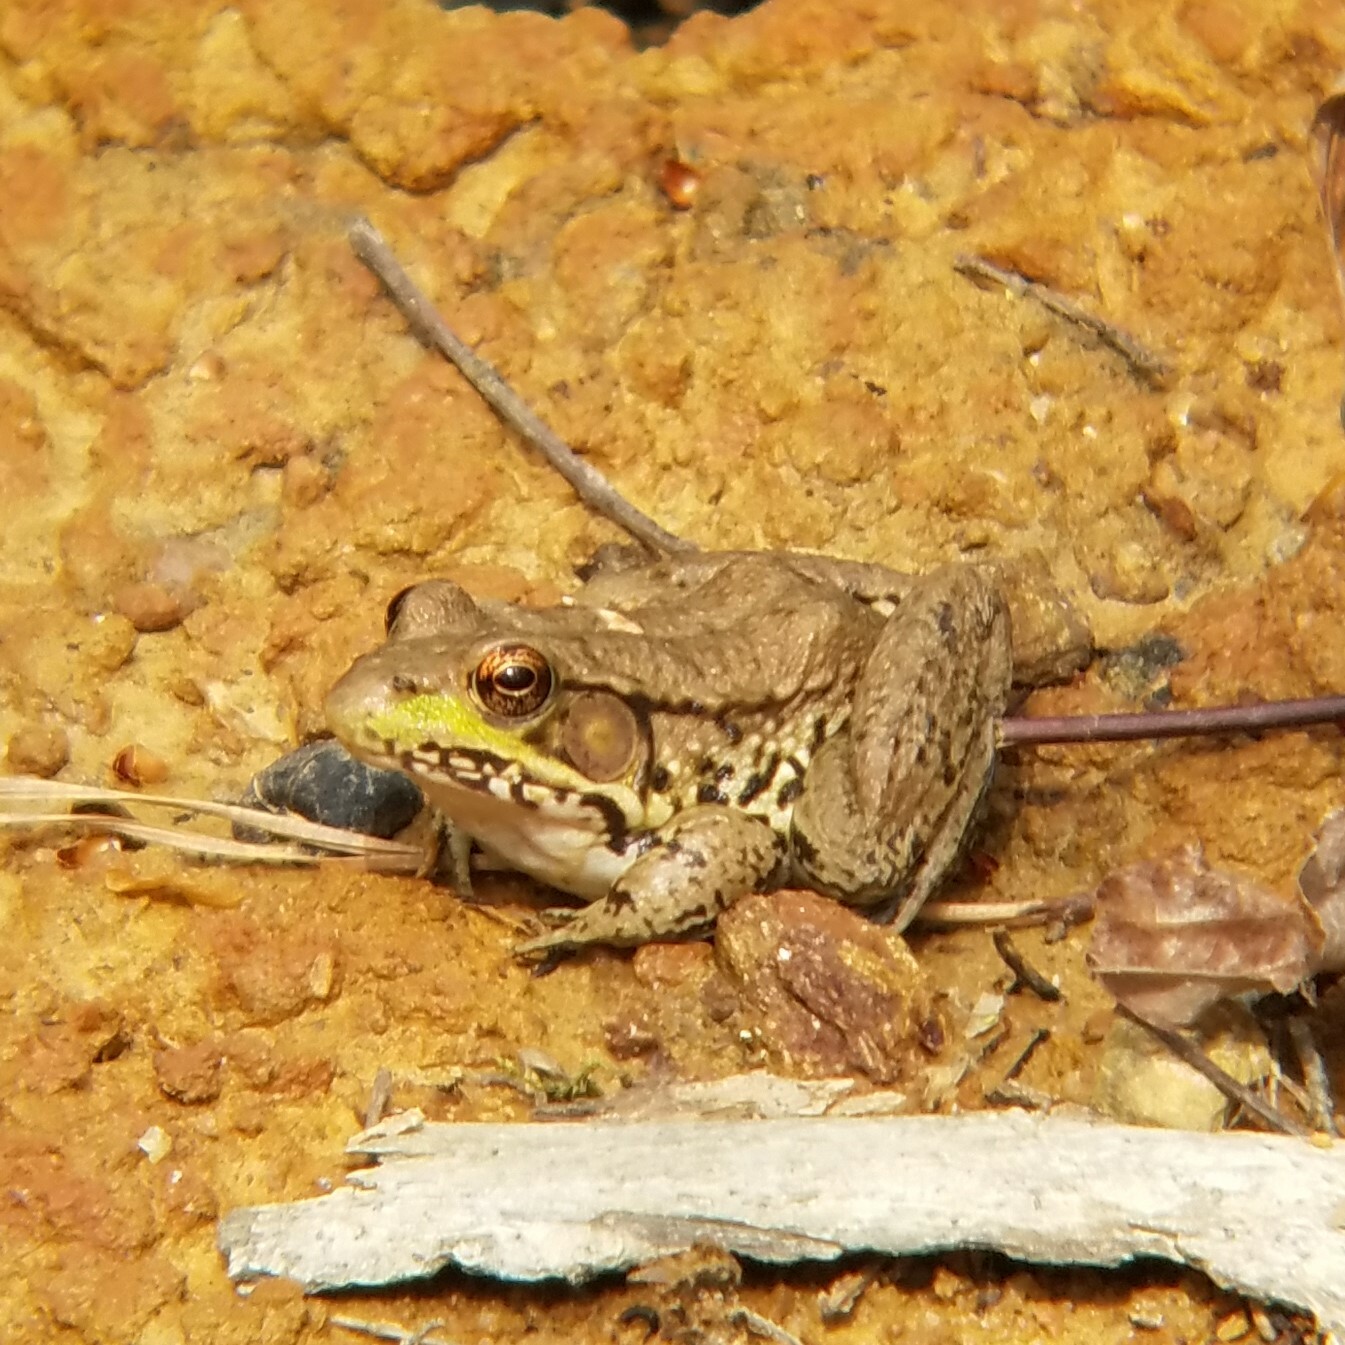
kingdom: Animalia
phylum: Chordata
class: Amphibia
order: Anura
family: Ranidae
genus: Lithobates
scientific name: Lithobates clamitans
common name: Green frog
